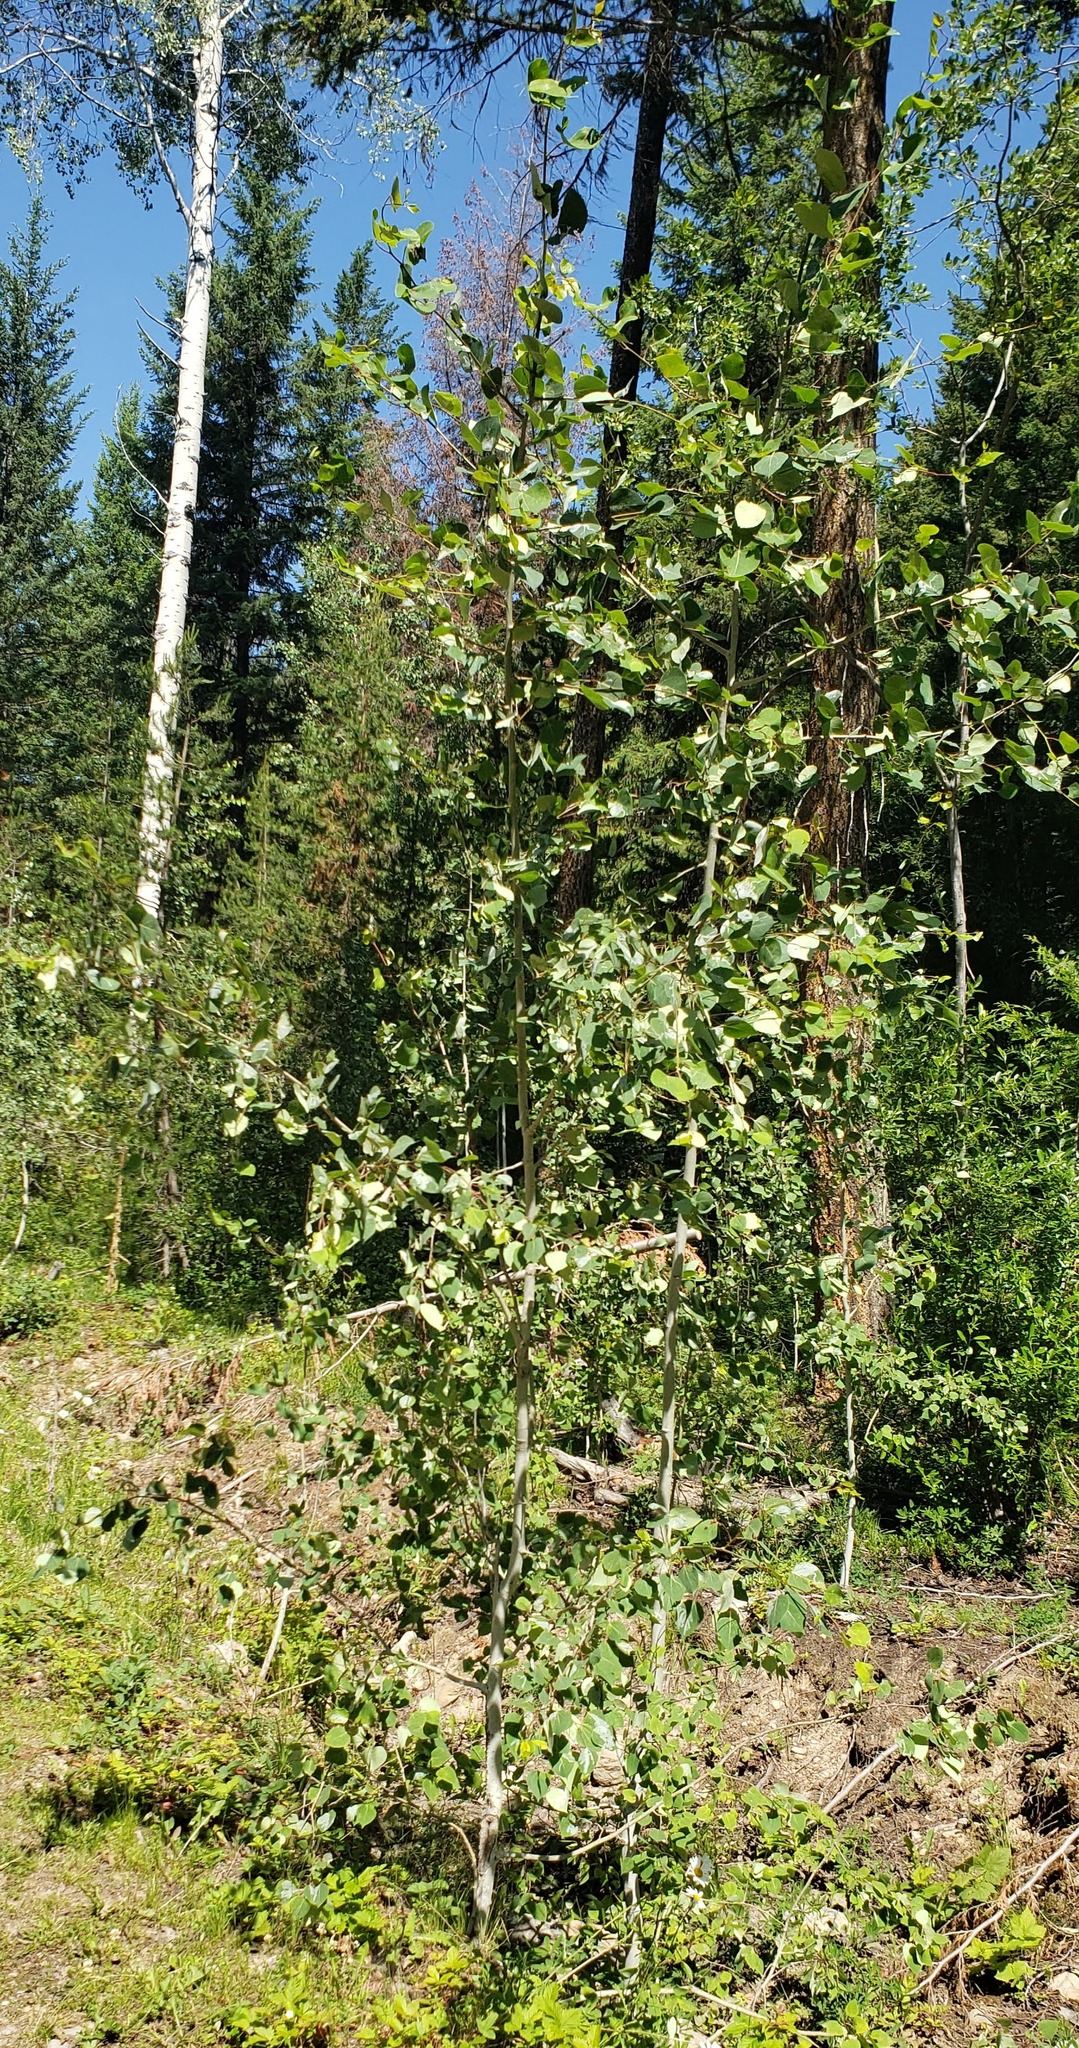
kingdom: Plantae
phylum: Tracheophyta
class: Magnoliopsida
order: Malpighiales
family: Salicaceae
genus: Populus
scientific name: Populus tremuloides
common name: Quaking aspen
